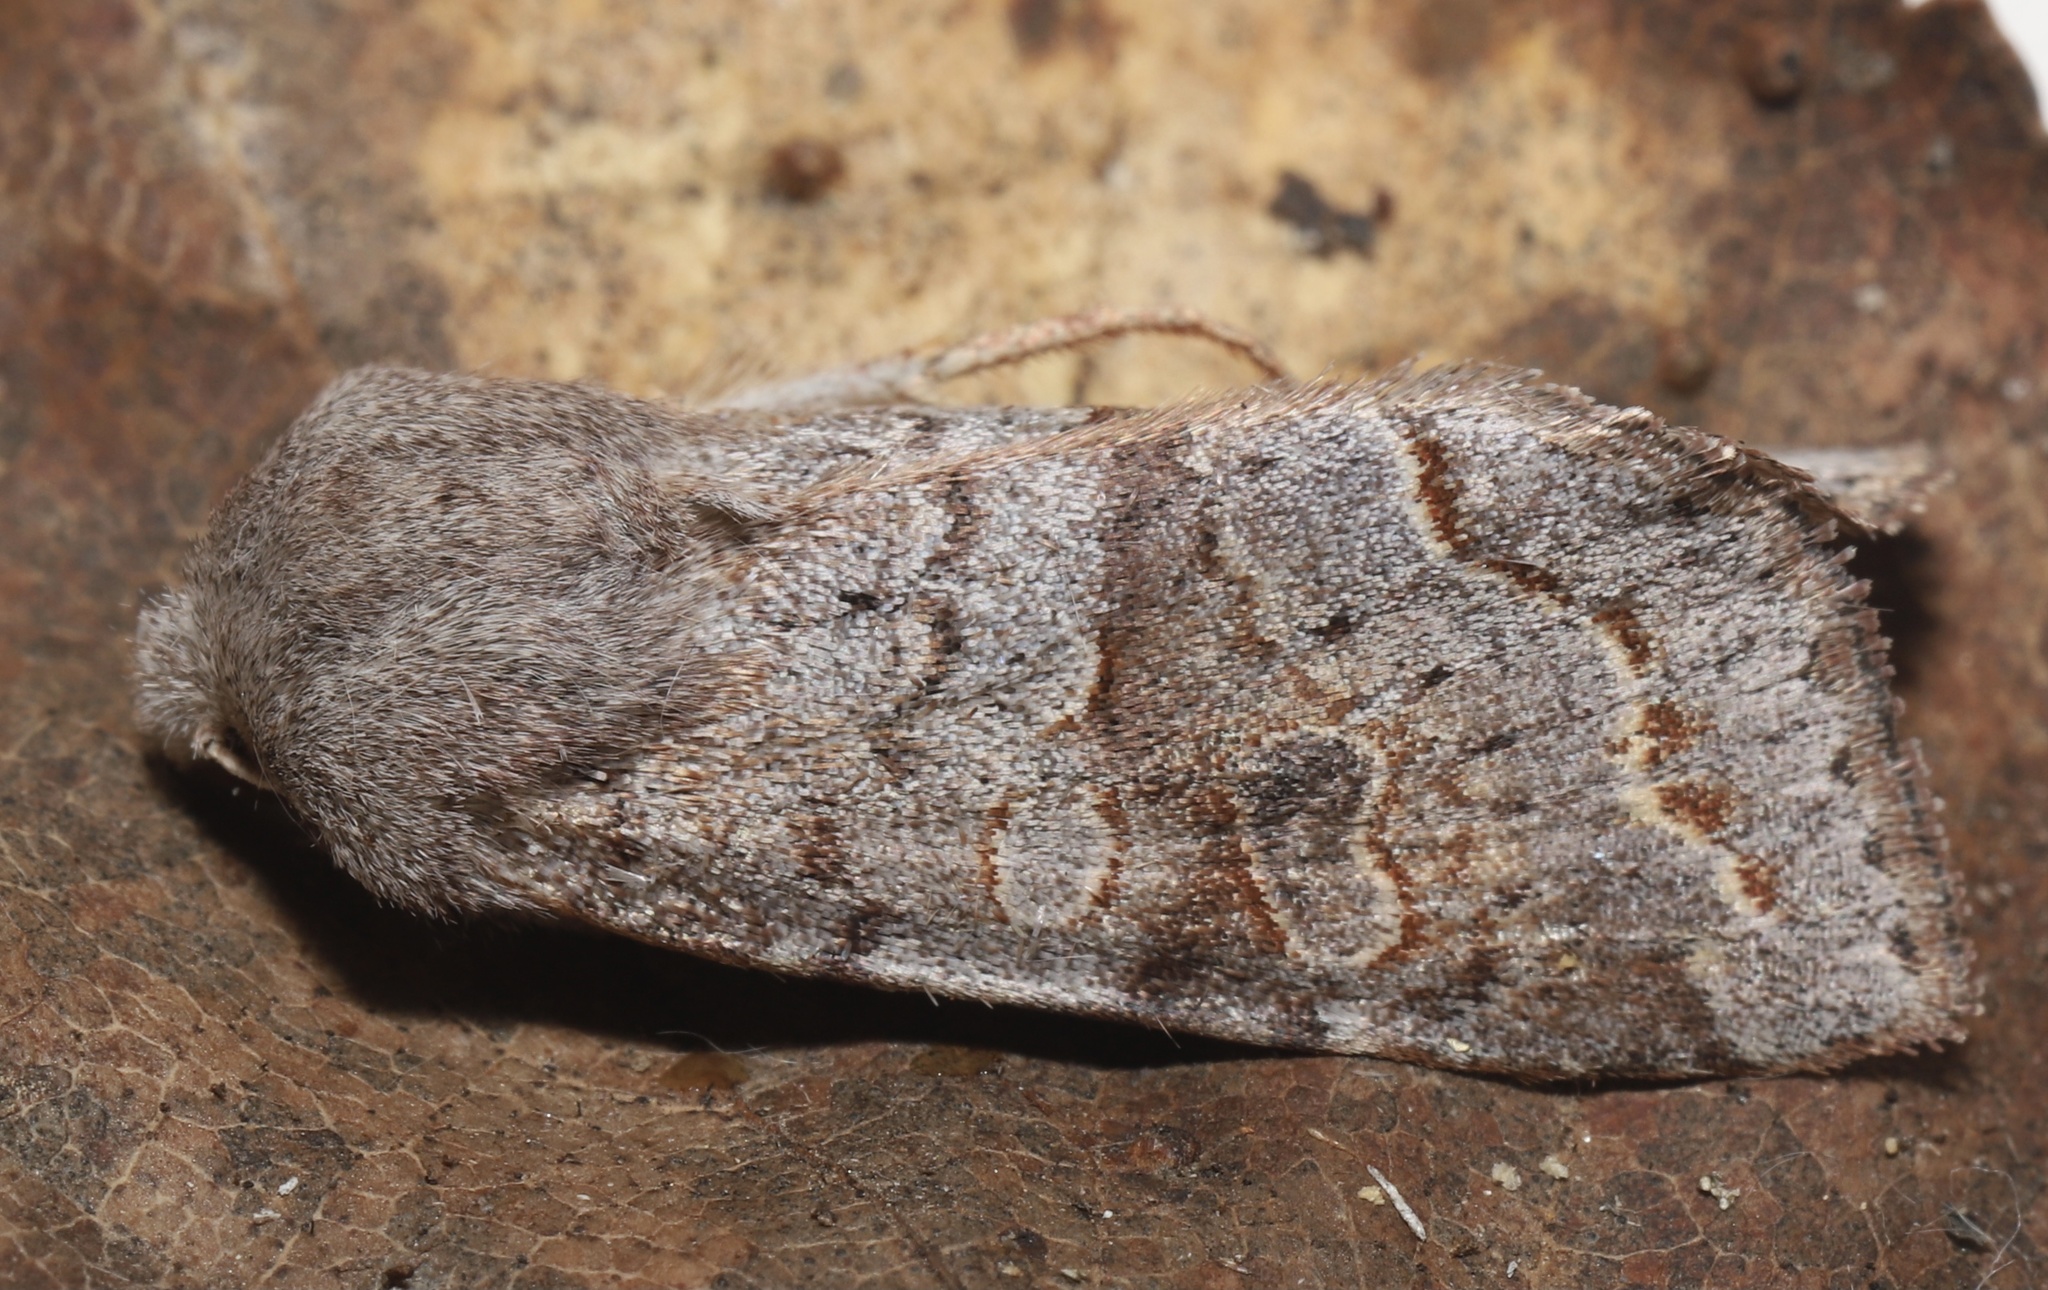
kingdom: Animalia
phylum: Arthropoda
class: Insecta
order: Lepidoptera
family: Noctuidae
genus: Orthosia
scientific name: Orthosia revicta
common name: Rusty whitesided caterpillar
